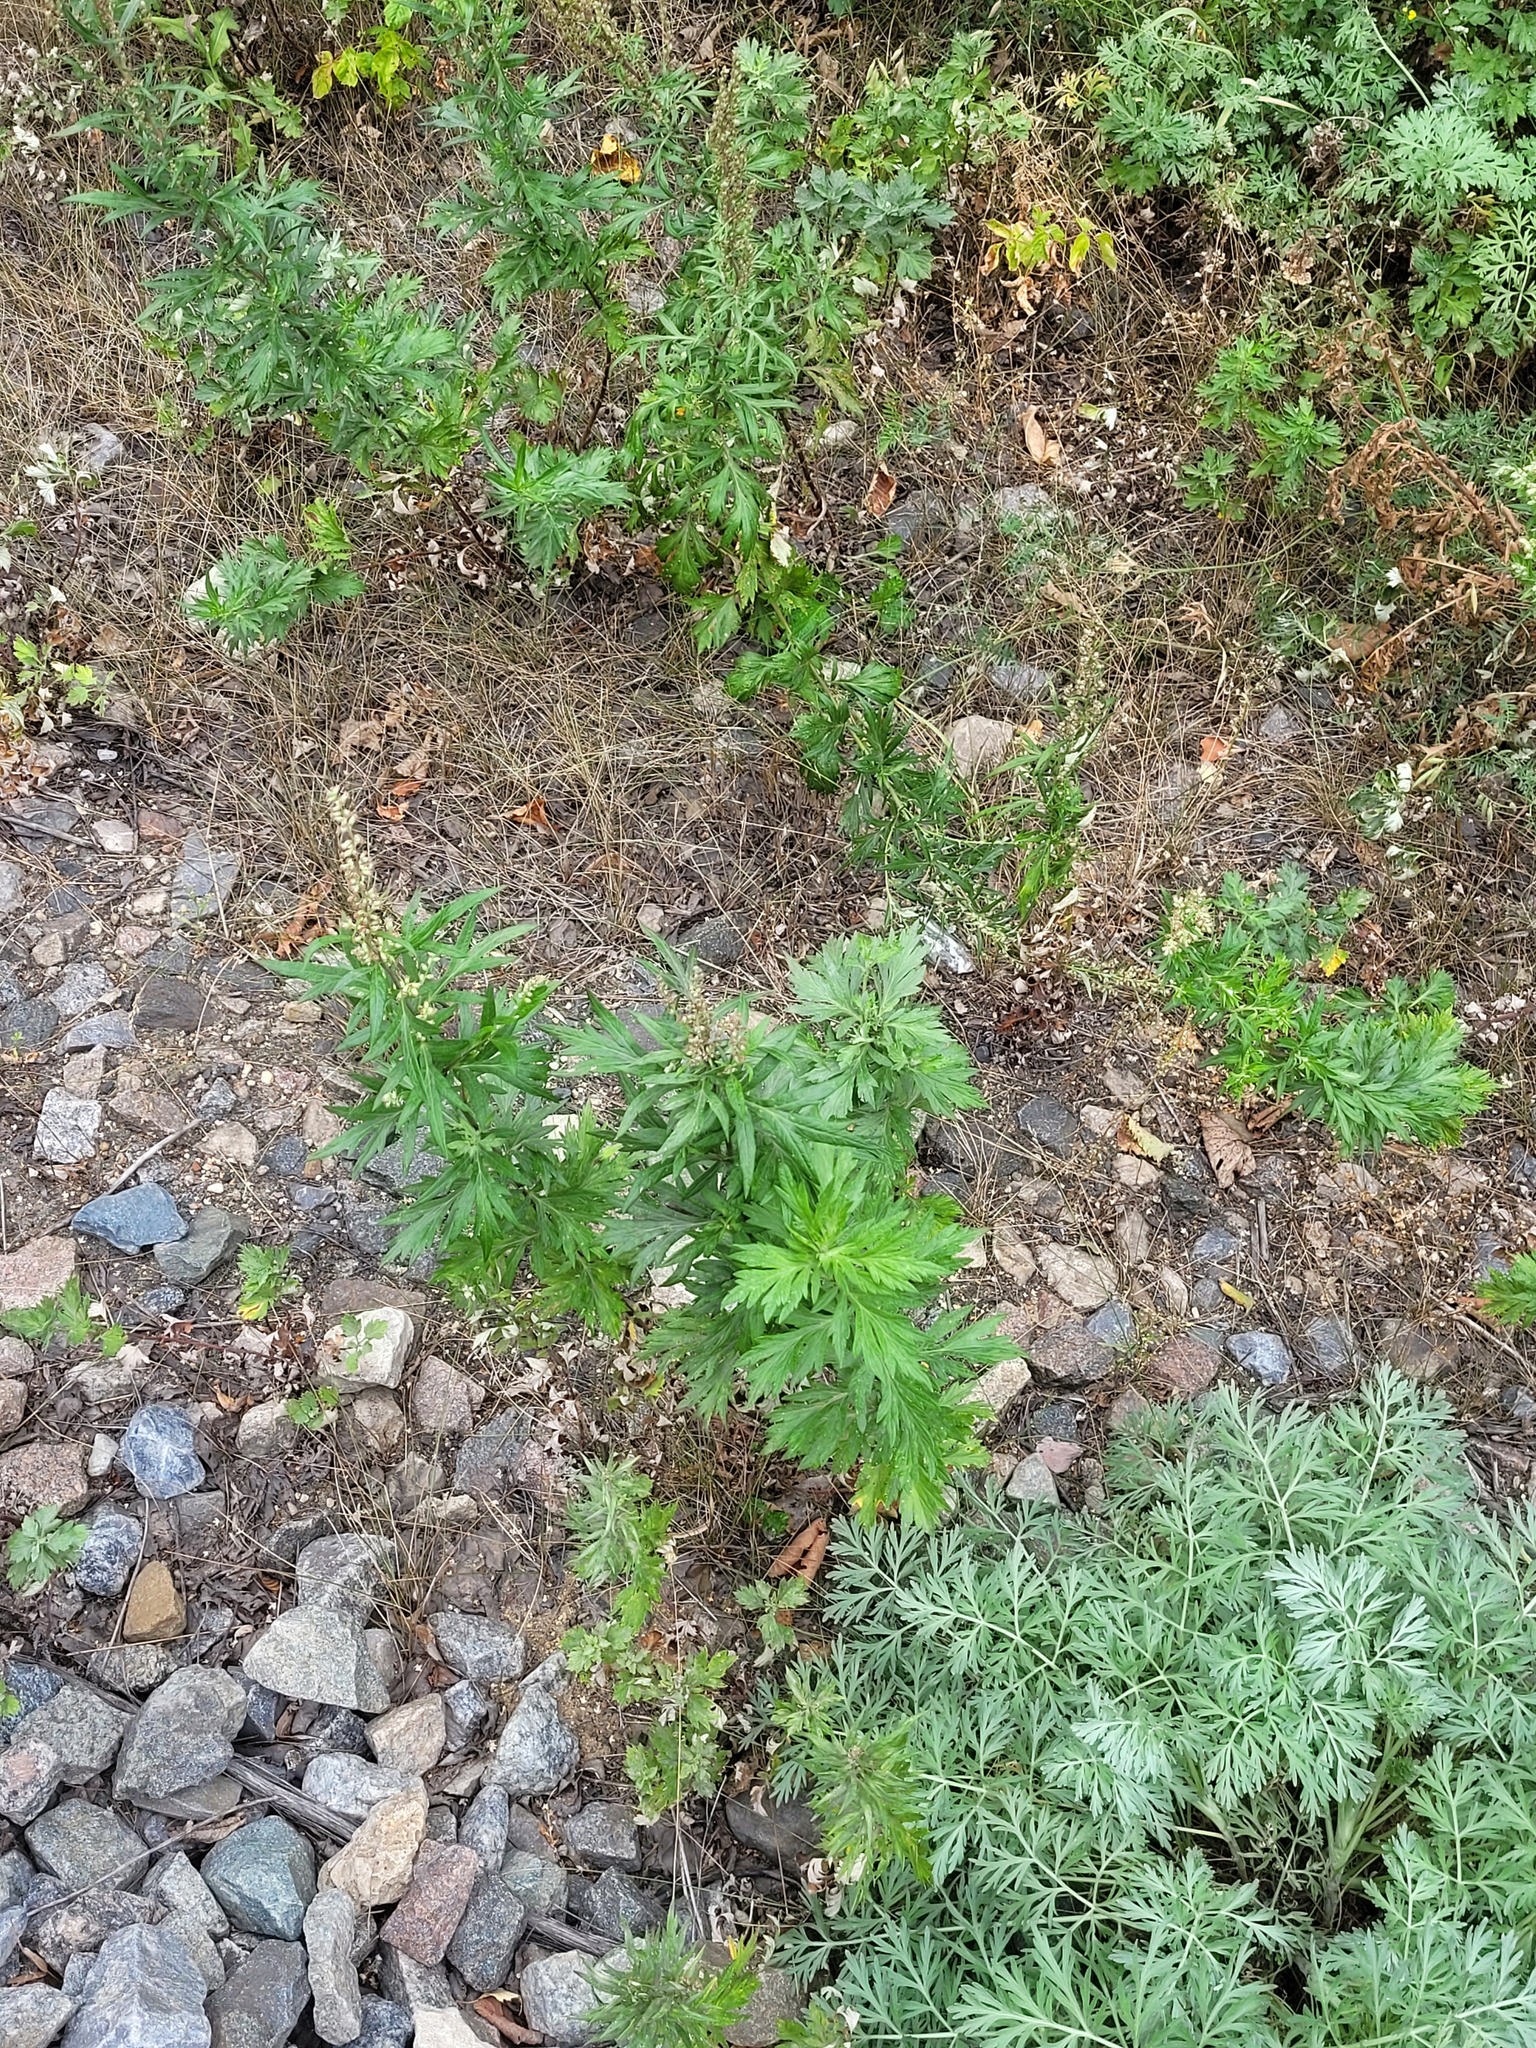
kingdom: Plantae
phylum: Tracheophyta
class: Magnoliopsida
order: Asterales
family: Asteraceae
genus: Artemisia
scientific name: Artemisia vulgaris
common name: Mugwort
